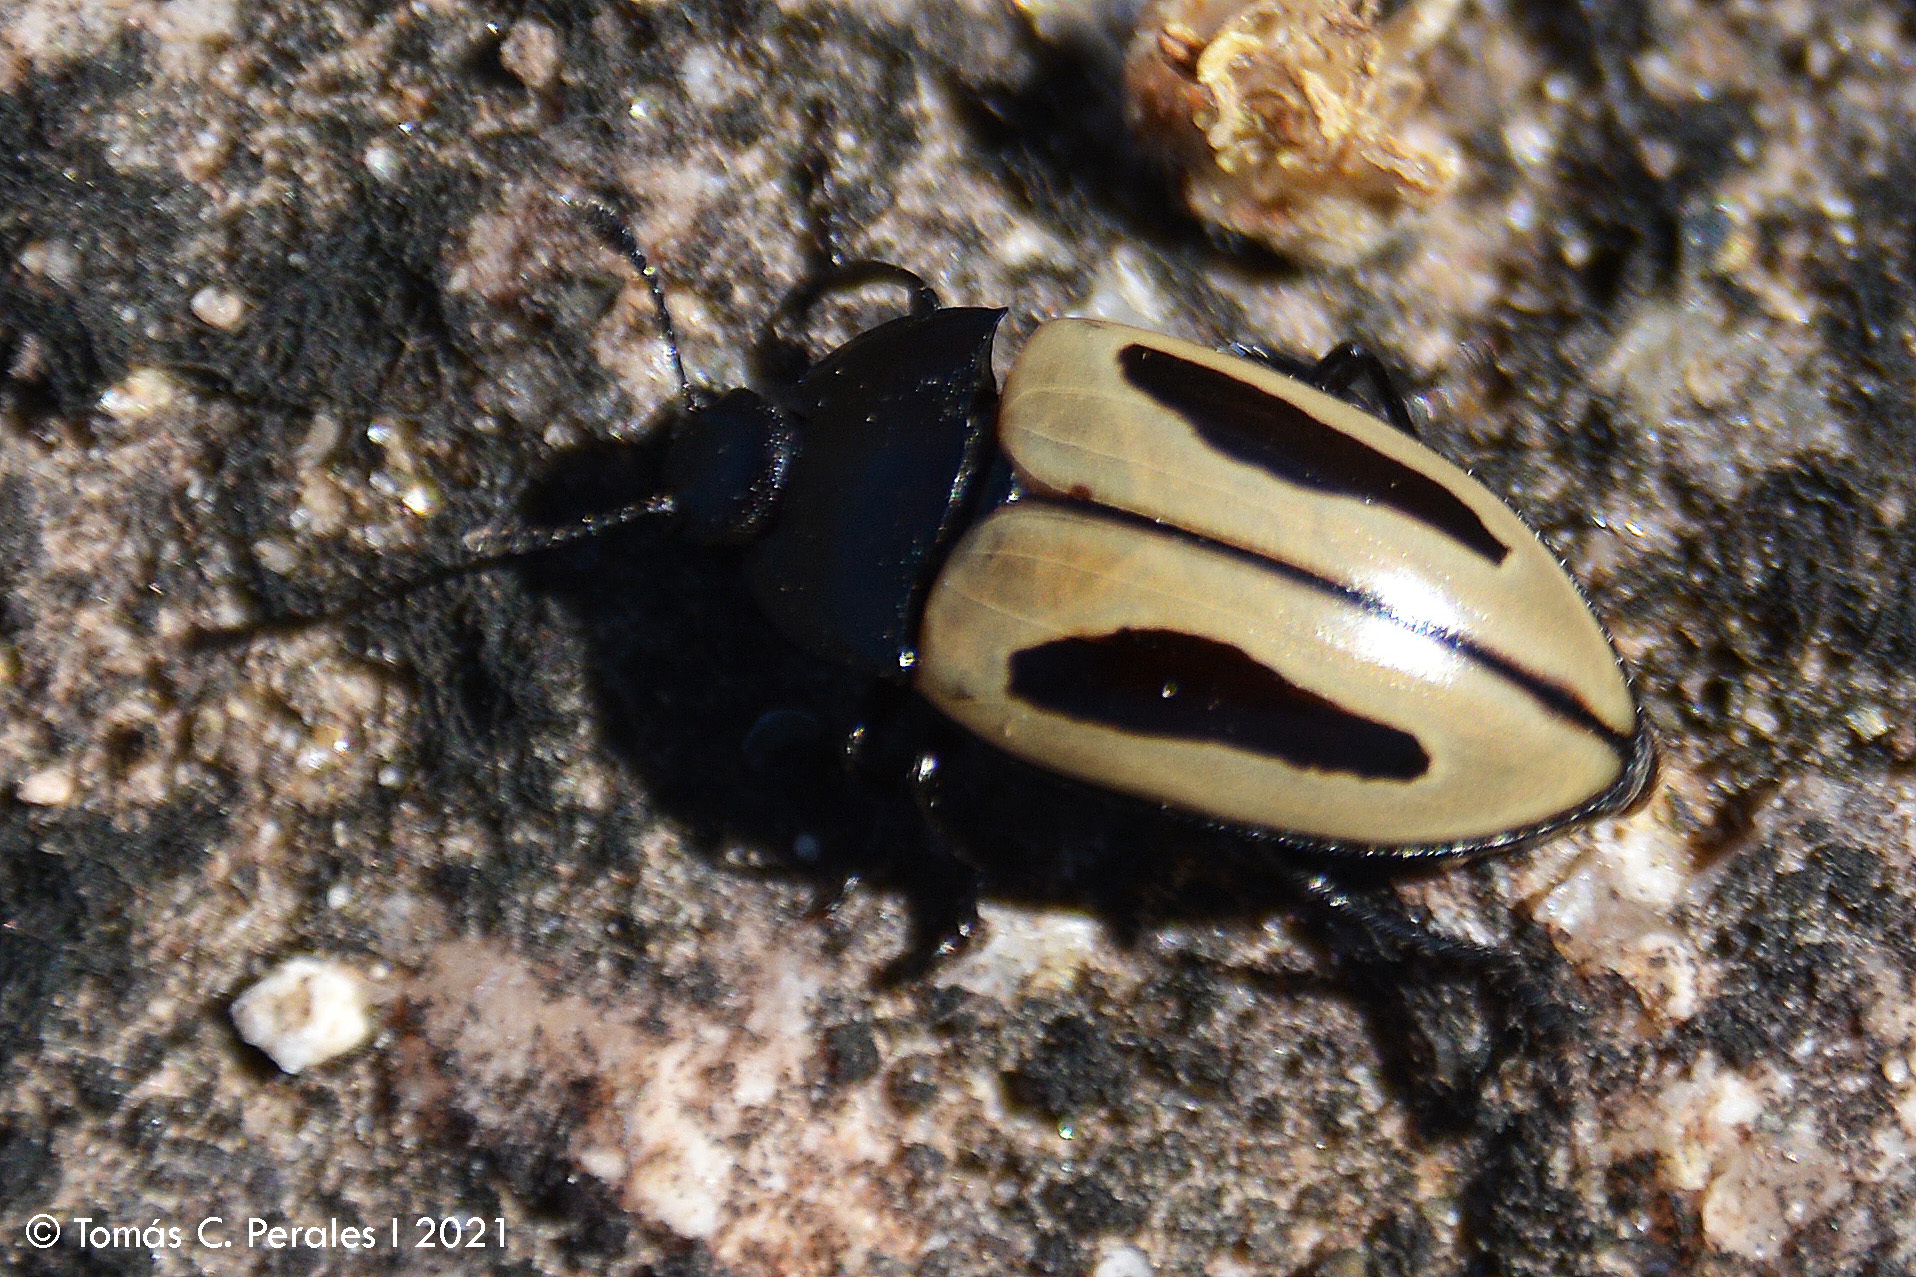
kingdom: Animalia
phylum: Arthropoda
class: Insecta
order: Coleoptera
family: Erotylidae
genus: Iphiclus
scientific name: Iphiclus
